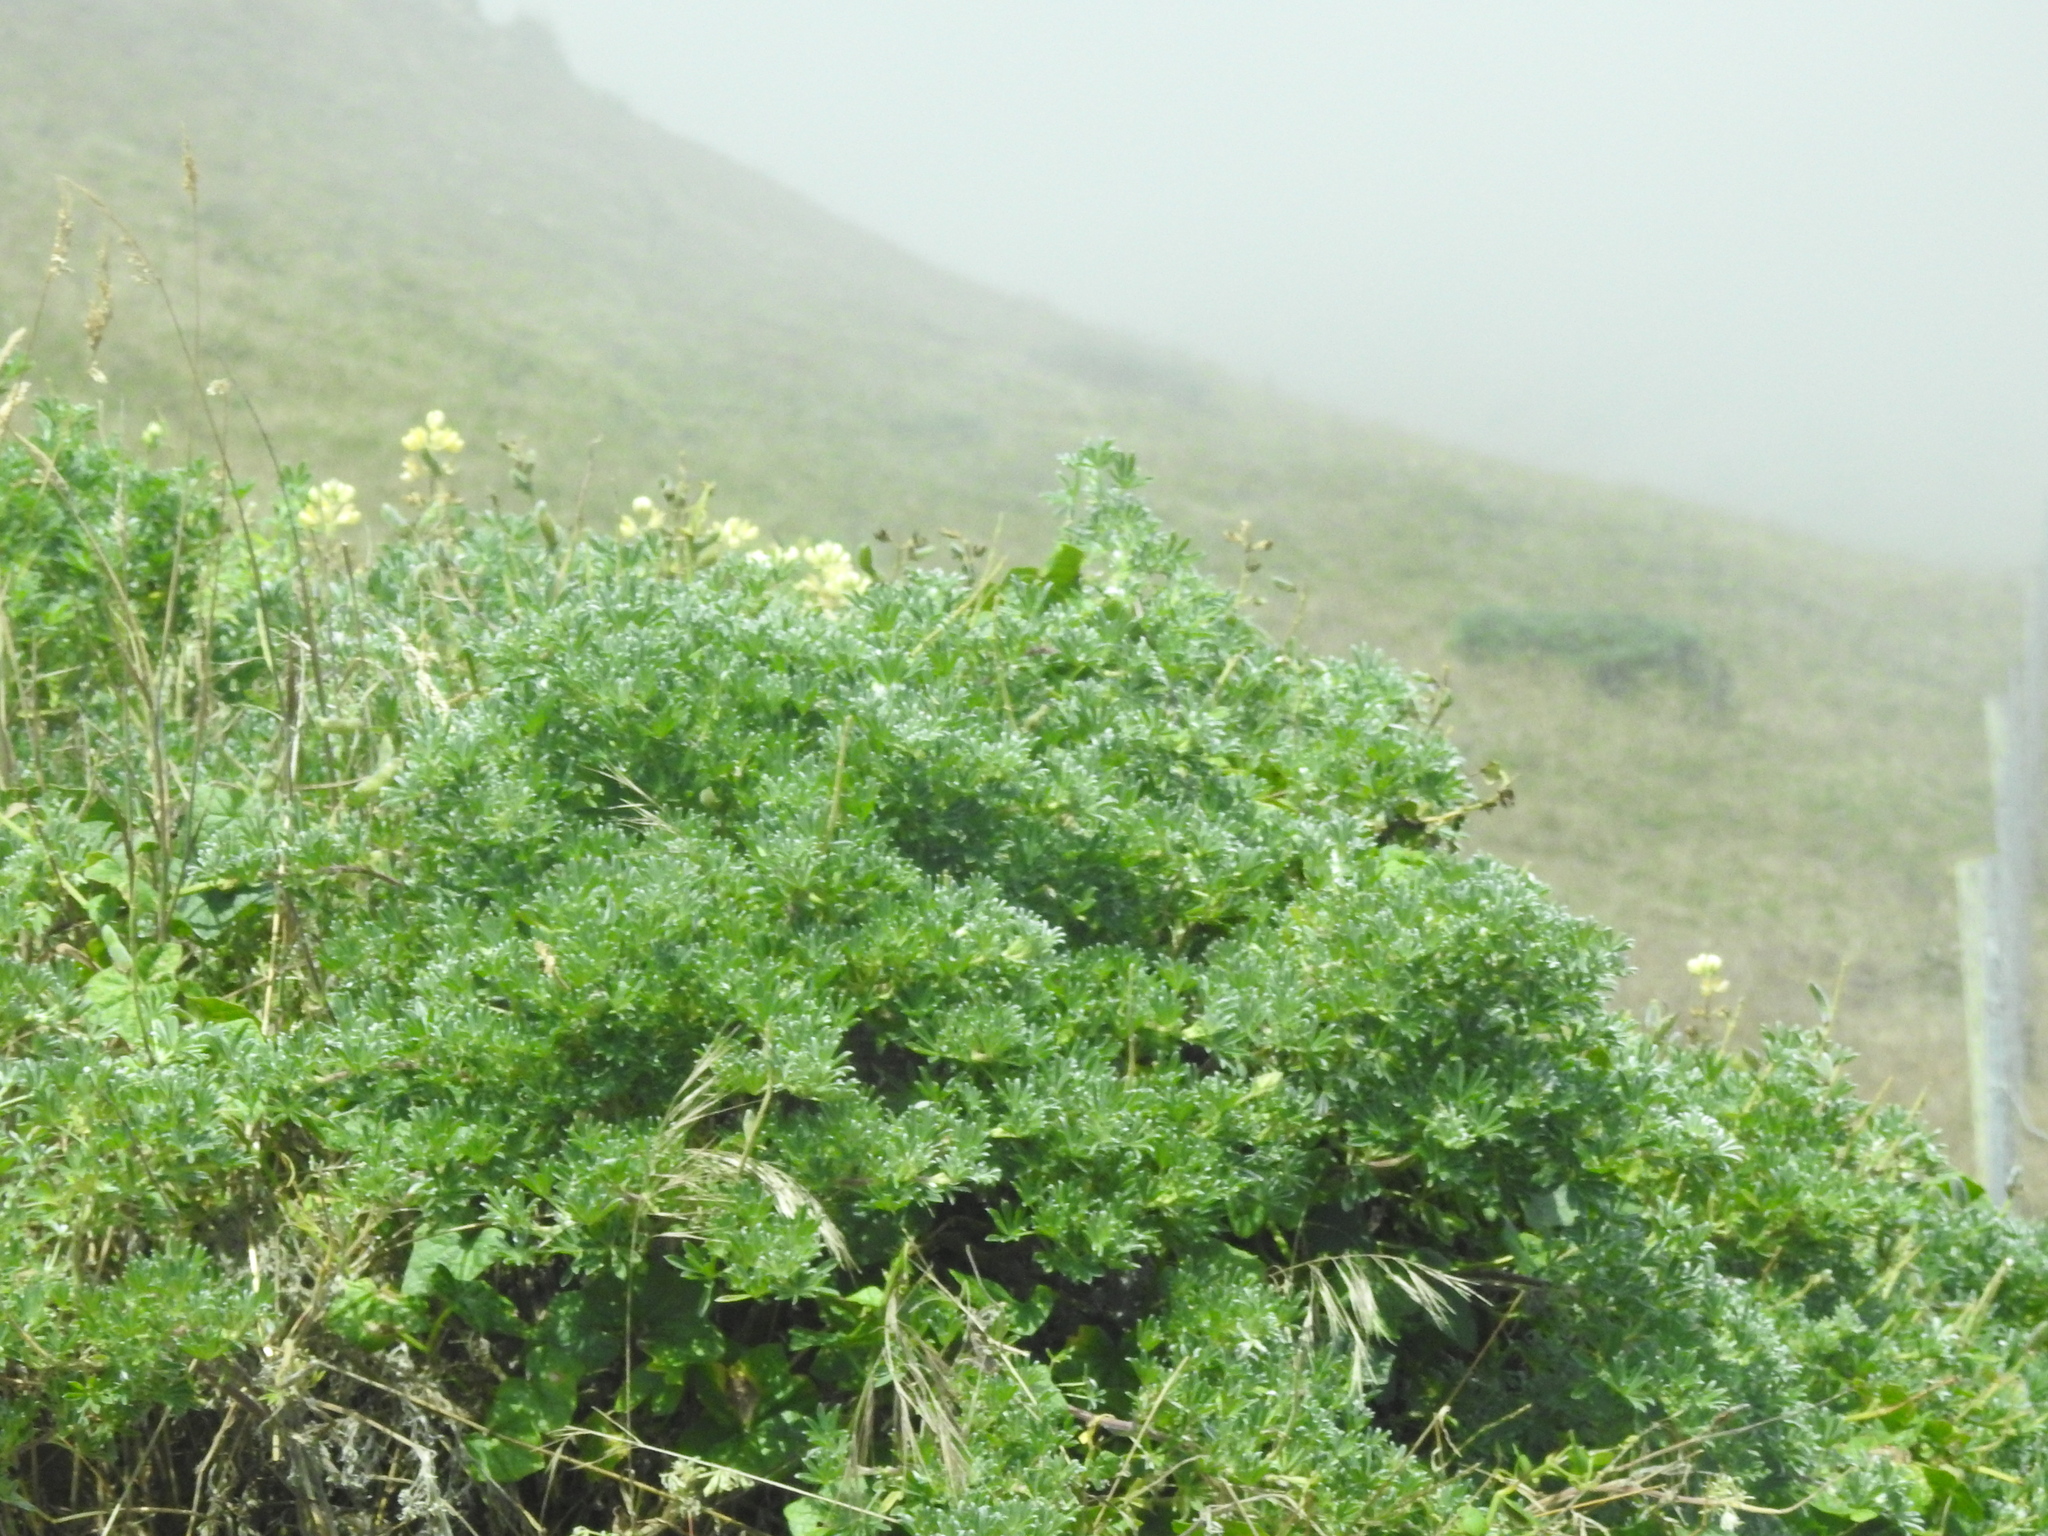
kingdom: Plantae
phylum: Tracheophyta
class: Magnoliopsida
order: Fabales
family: Fabaceae
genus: Lupinus
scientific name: Lupinus arboreus
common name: Yellow bush lupine
